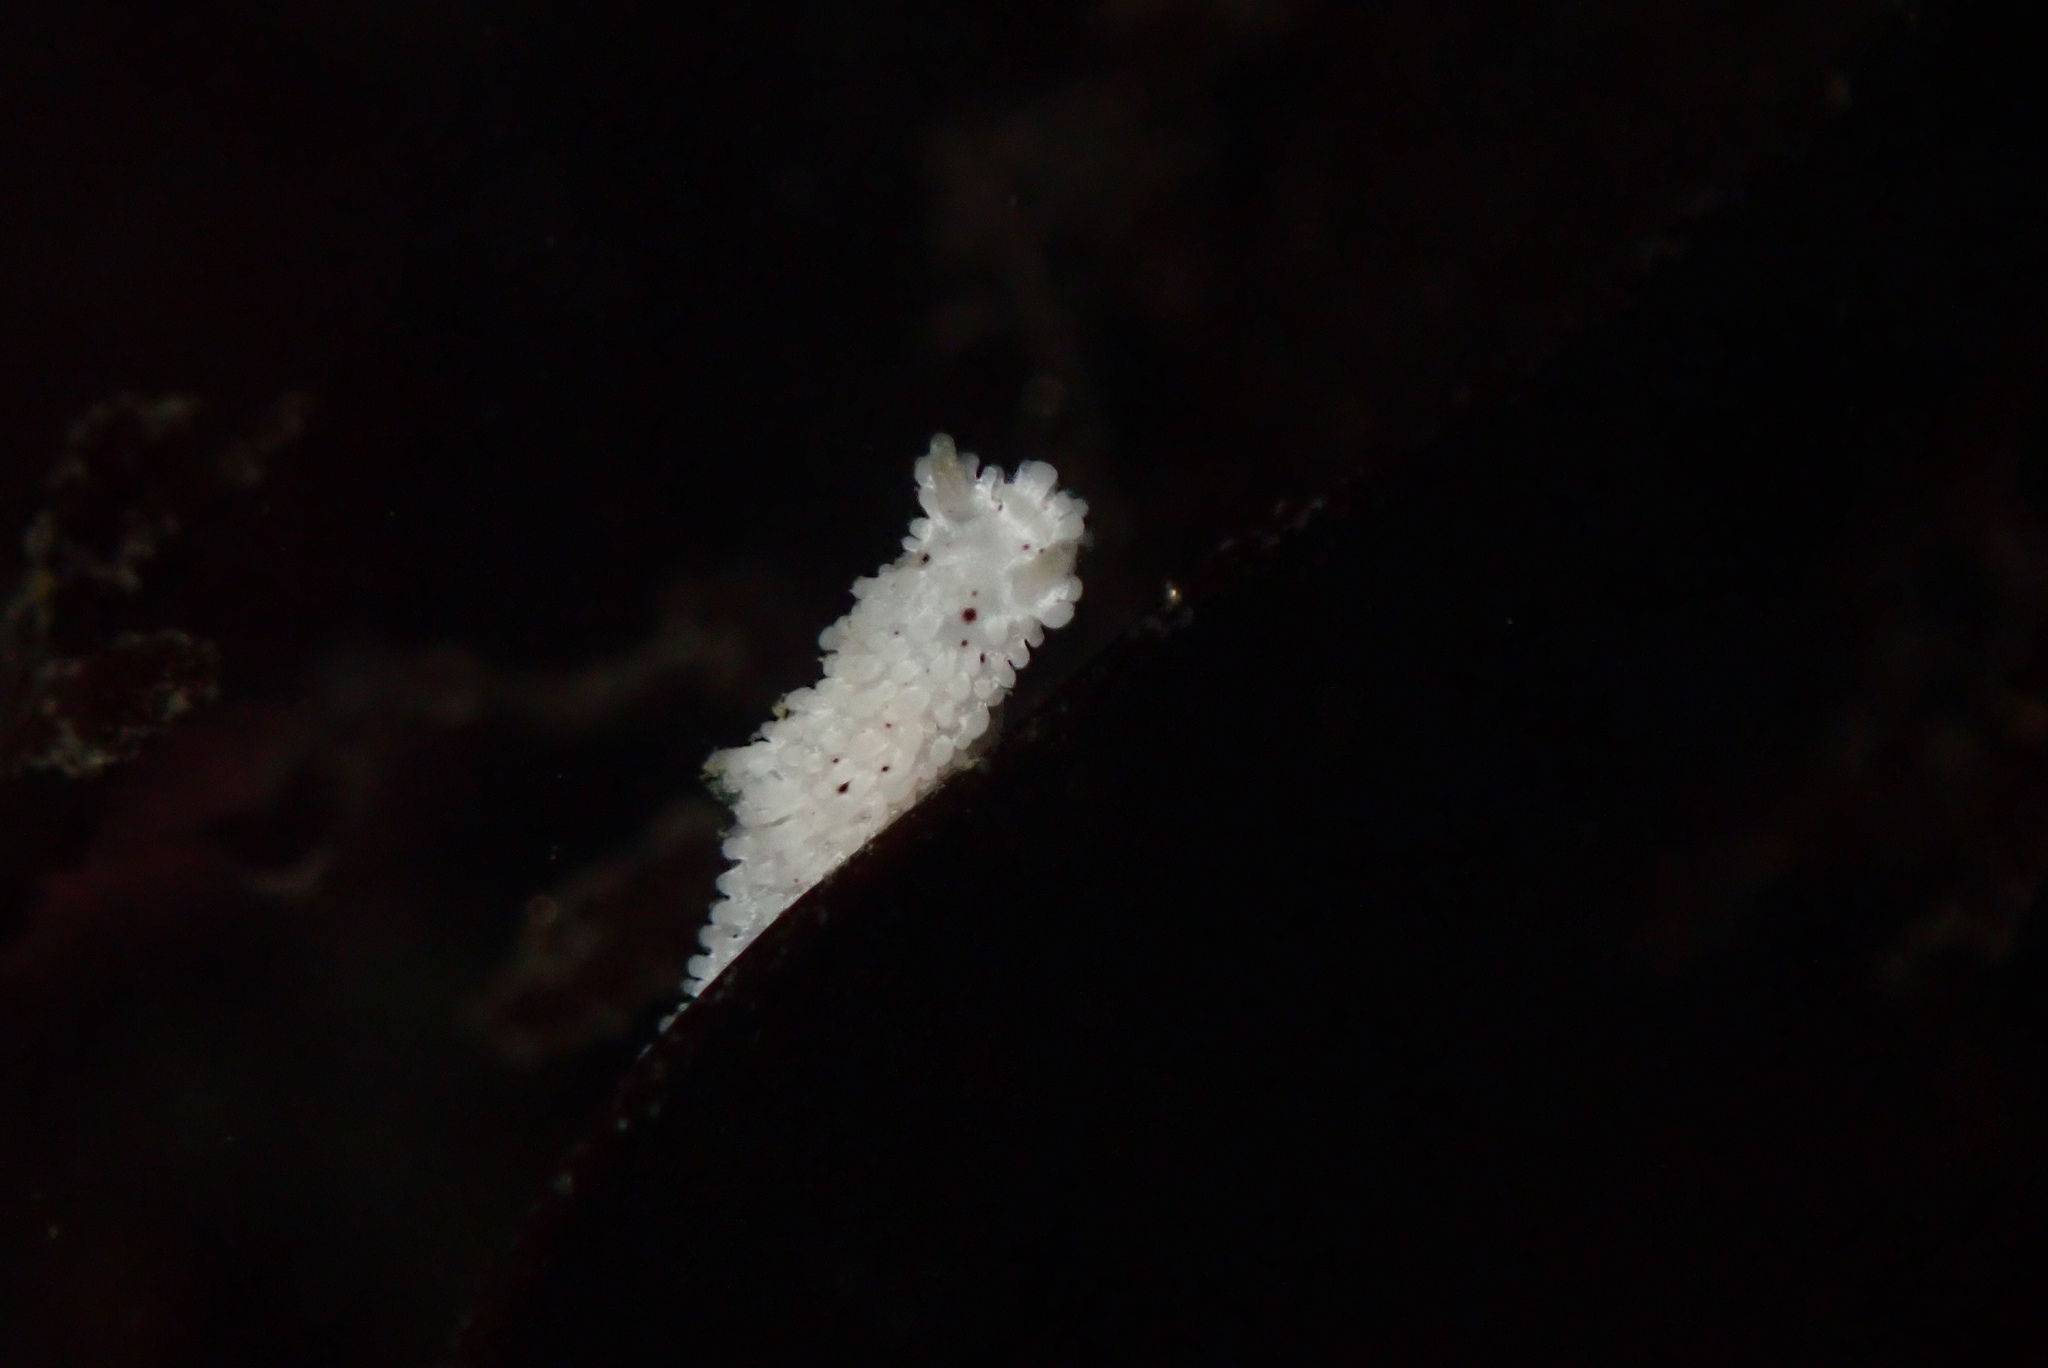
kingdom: Animalia
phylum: Mollusca
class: Gastropoda
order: Nudibranchia
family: Aegiridae
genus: Aegires
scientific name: Aegires albopunctatus
